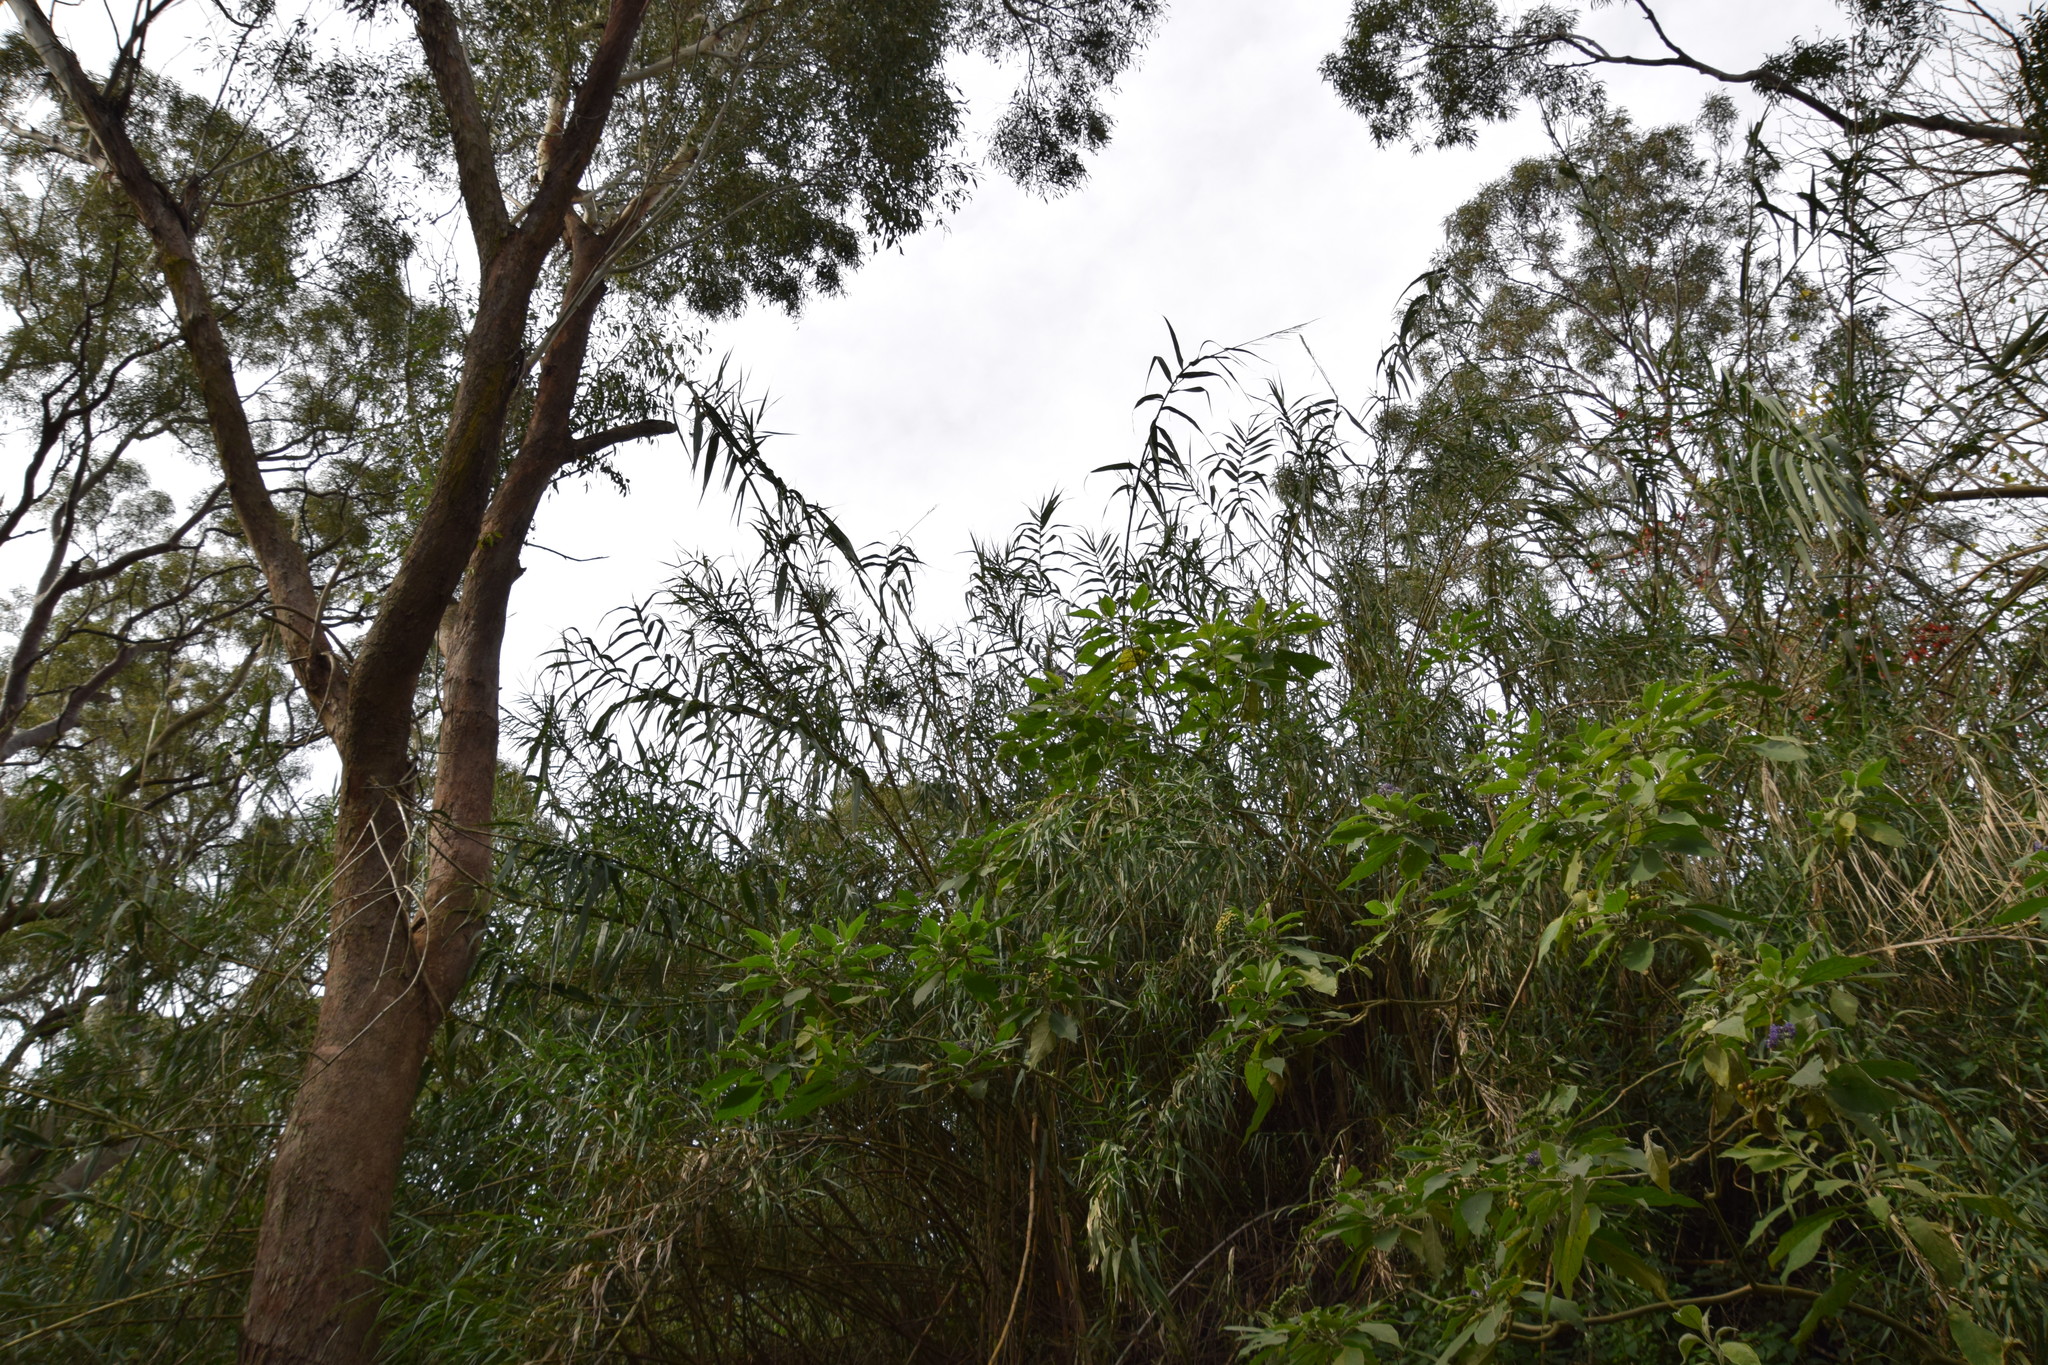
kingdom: Plantae
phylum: Tracheophyta
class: Liliopsida
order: Poales
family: Poaceae
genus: Arundo
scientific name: Arundo donax
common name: Giant reed
